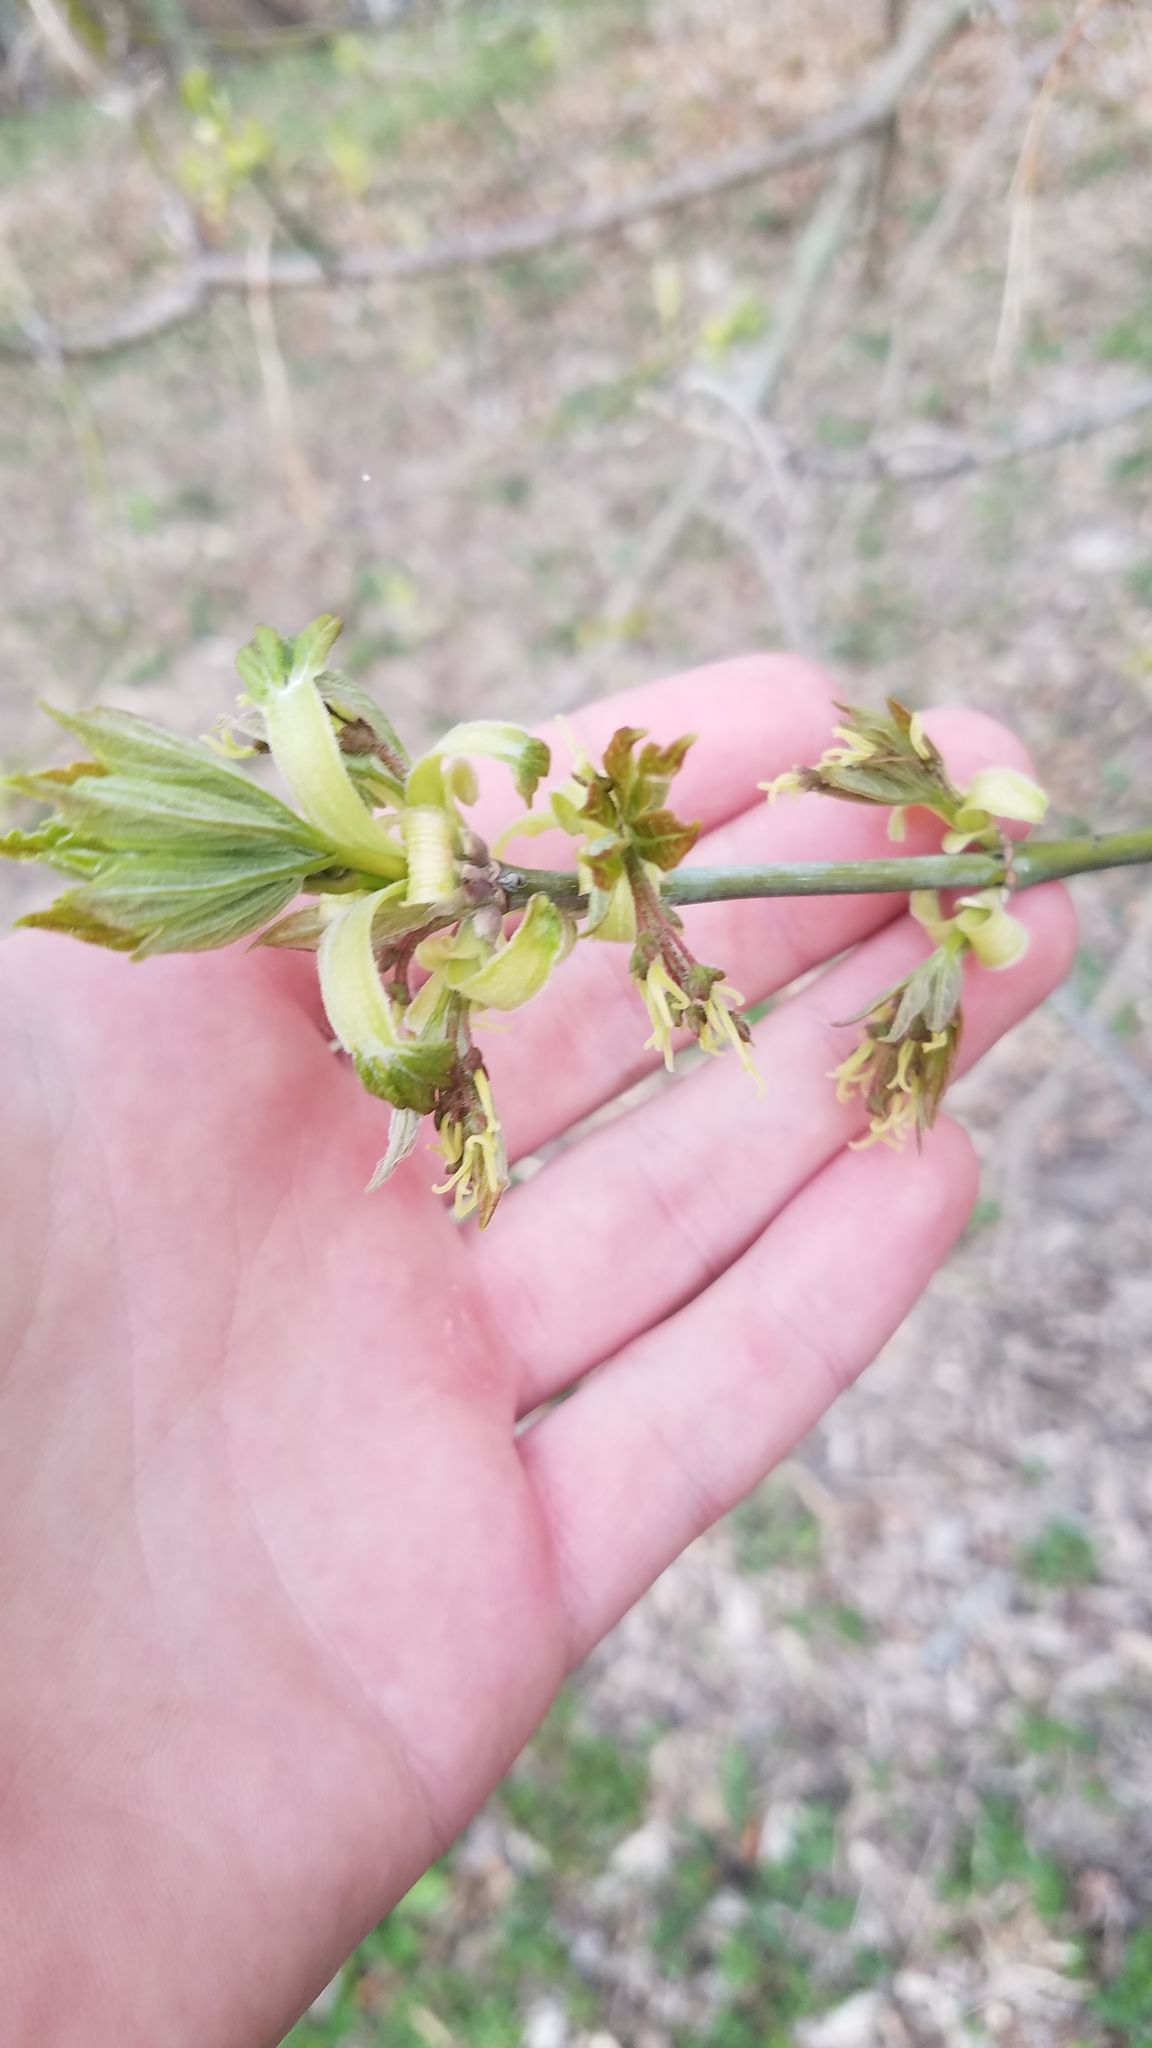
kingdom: Plantae
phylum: Tracheophyta
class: Magnoliopsida
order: Sapindales
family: Sapindaceae
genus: Acer
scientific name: Acer negundo
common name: Ashleaf maple
